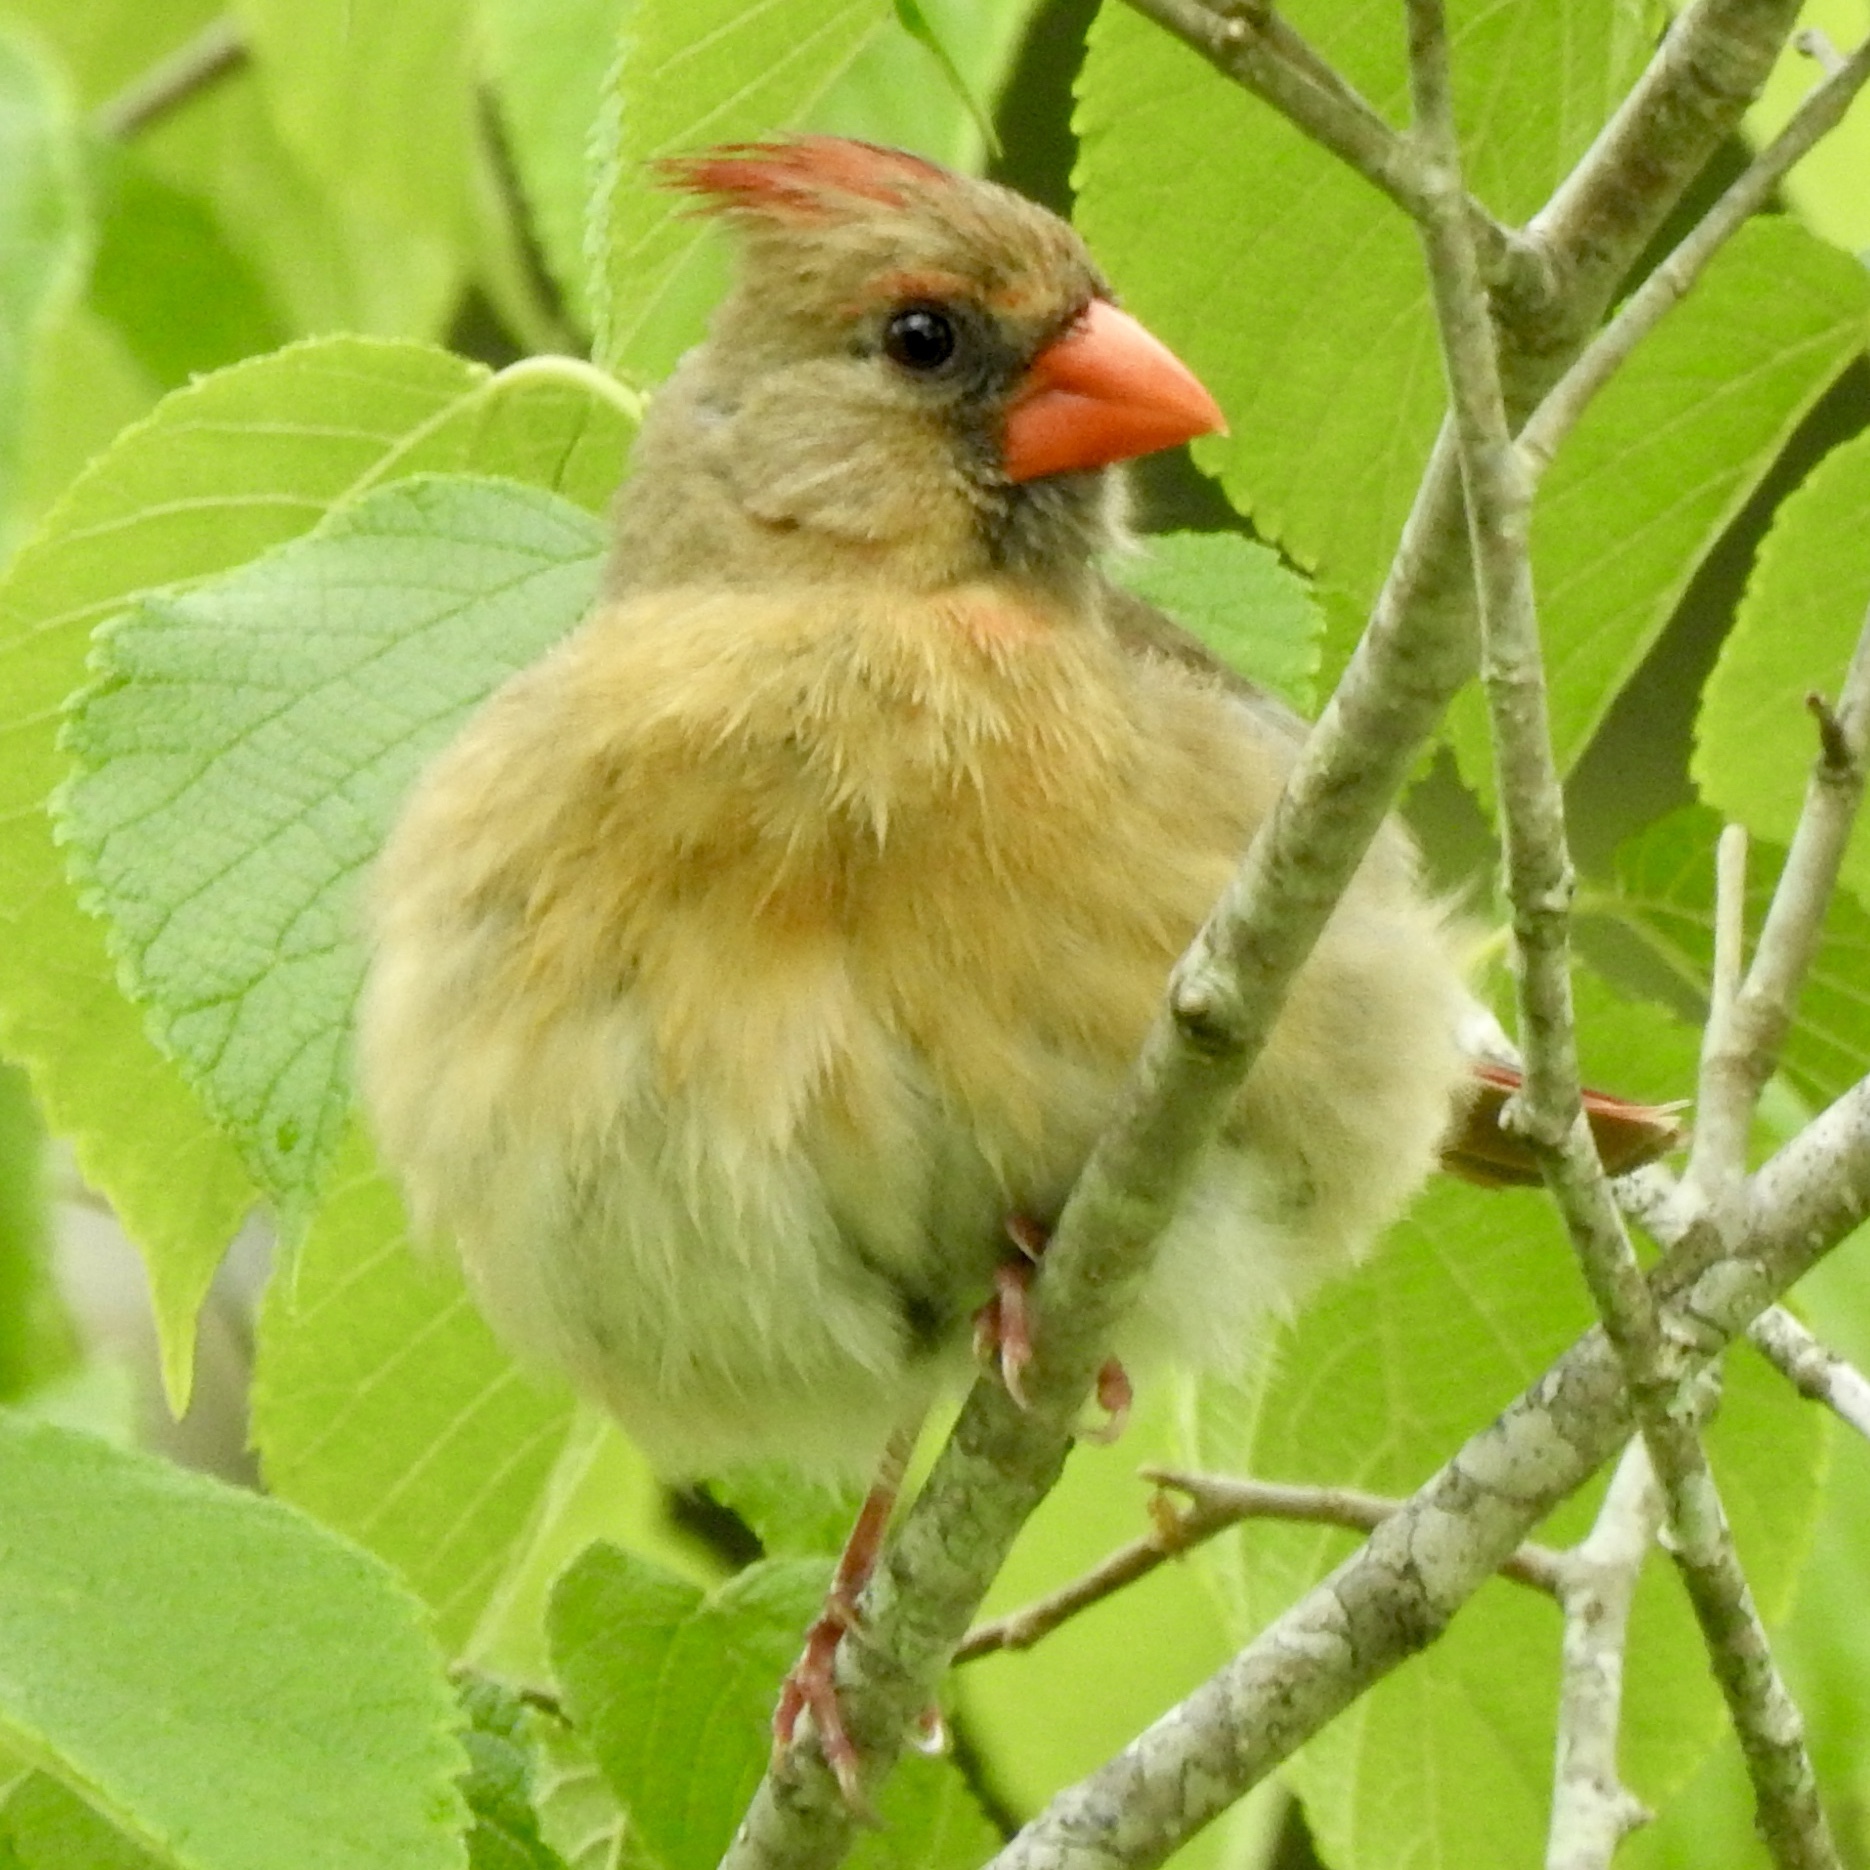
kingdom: Animalia
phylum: Chordata
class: Aves
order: Passeriformes
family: Cardinalidae
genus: Cardinalis
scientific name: Cardinalis cardinalis
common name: Northern cardinal
